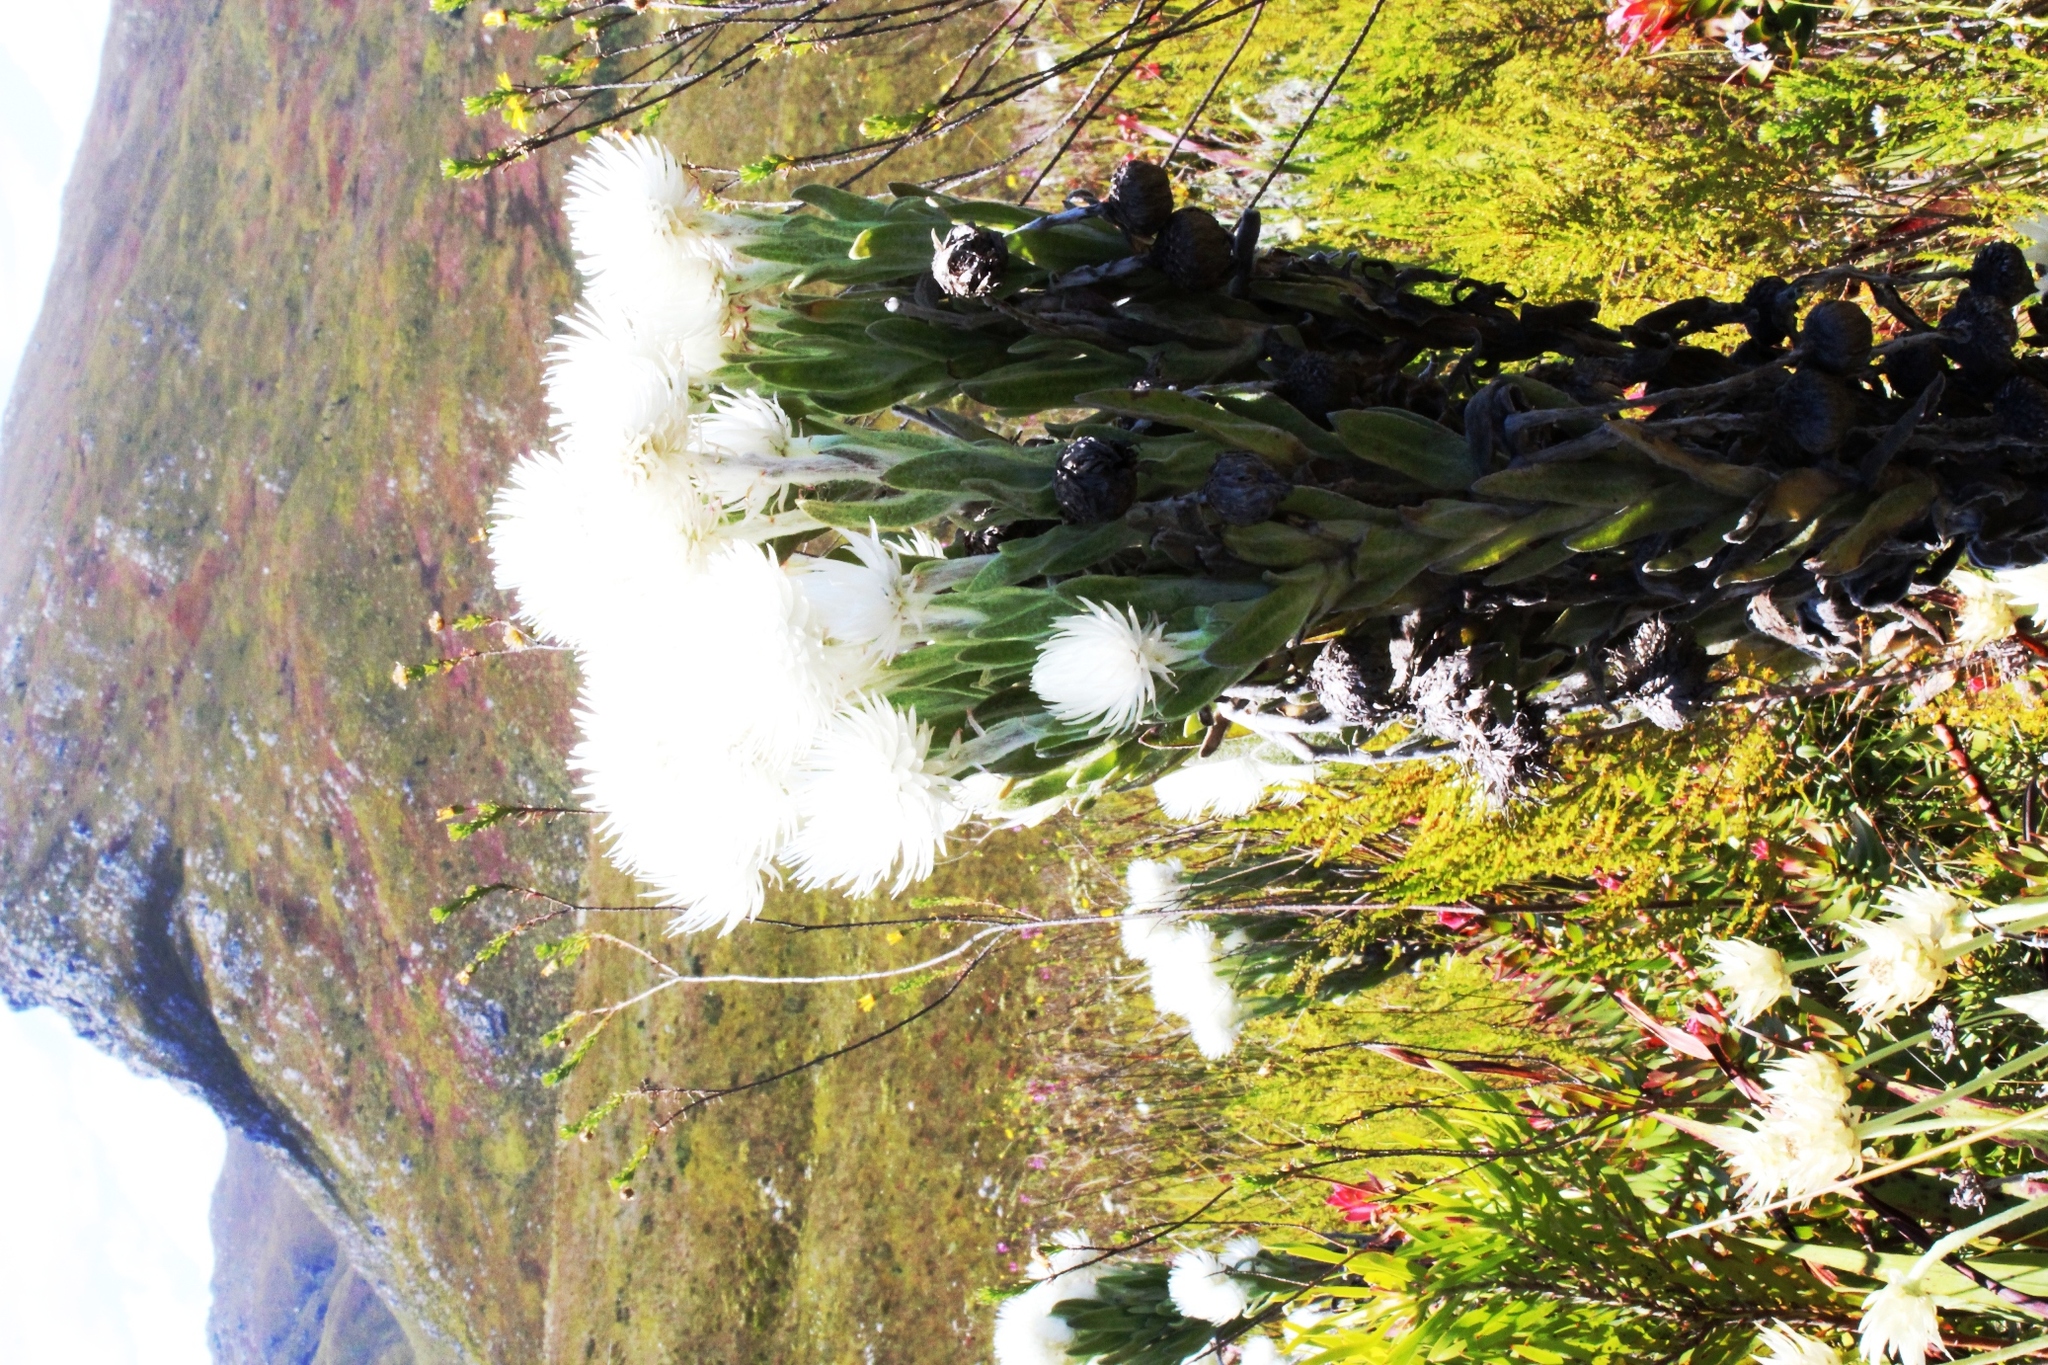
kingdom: Plantae
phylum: Tracheophyta
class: Magnoliopsida
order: Asterales
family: Asteraceae
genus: Syncarpha
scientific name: Syncarpha vestita
